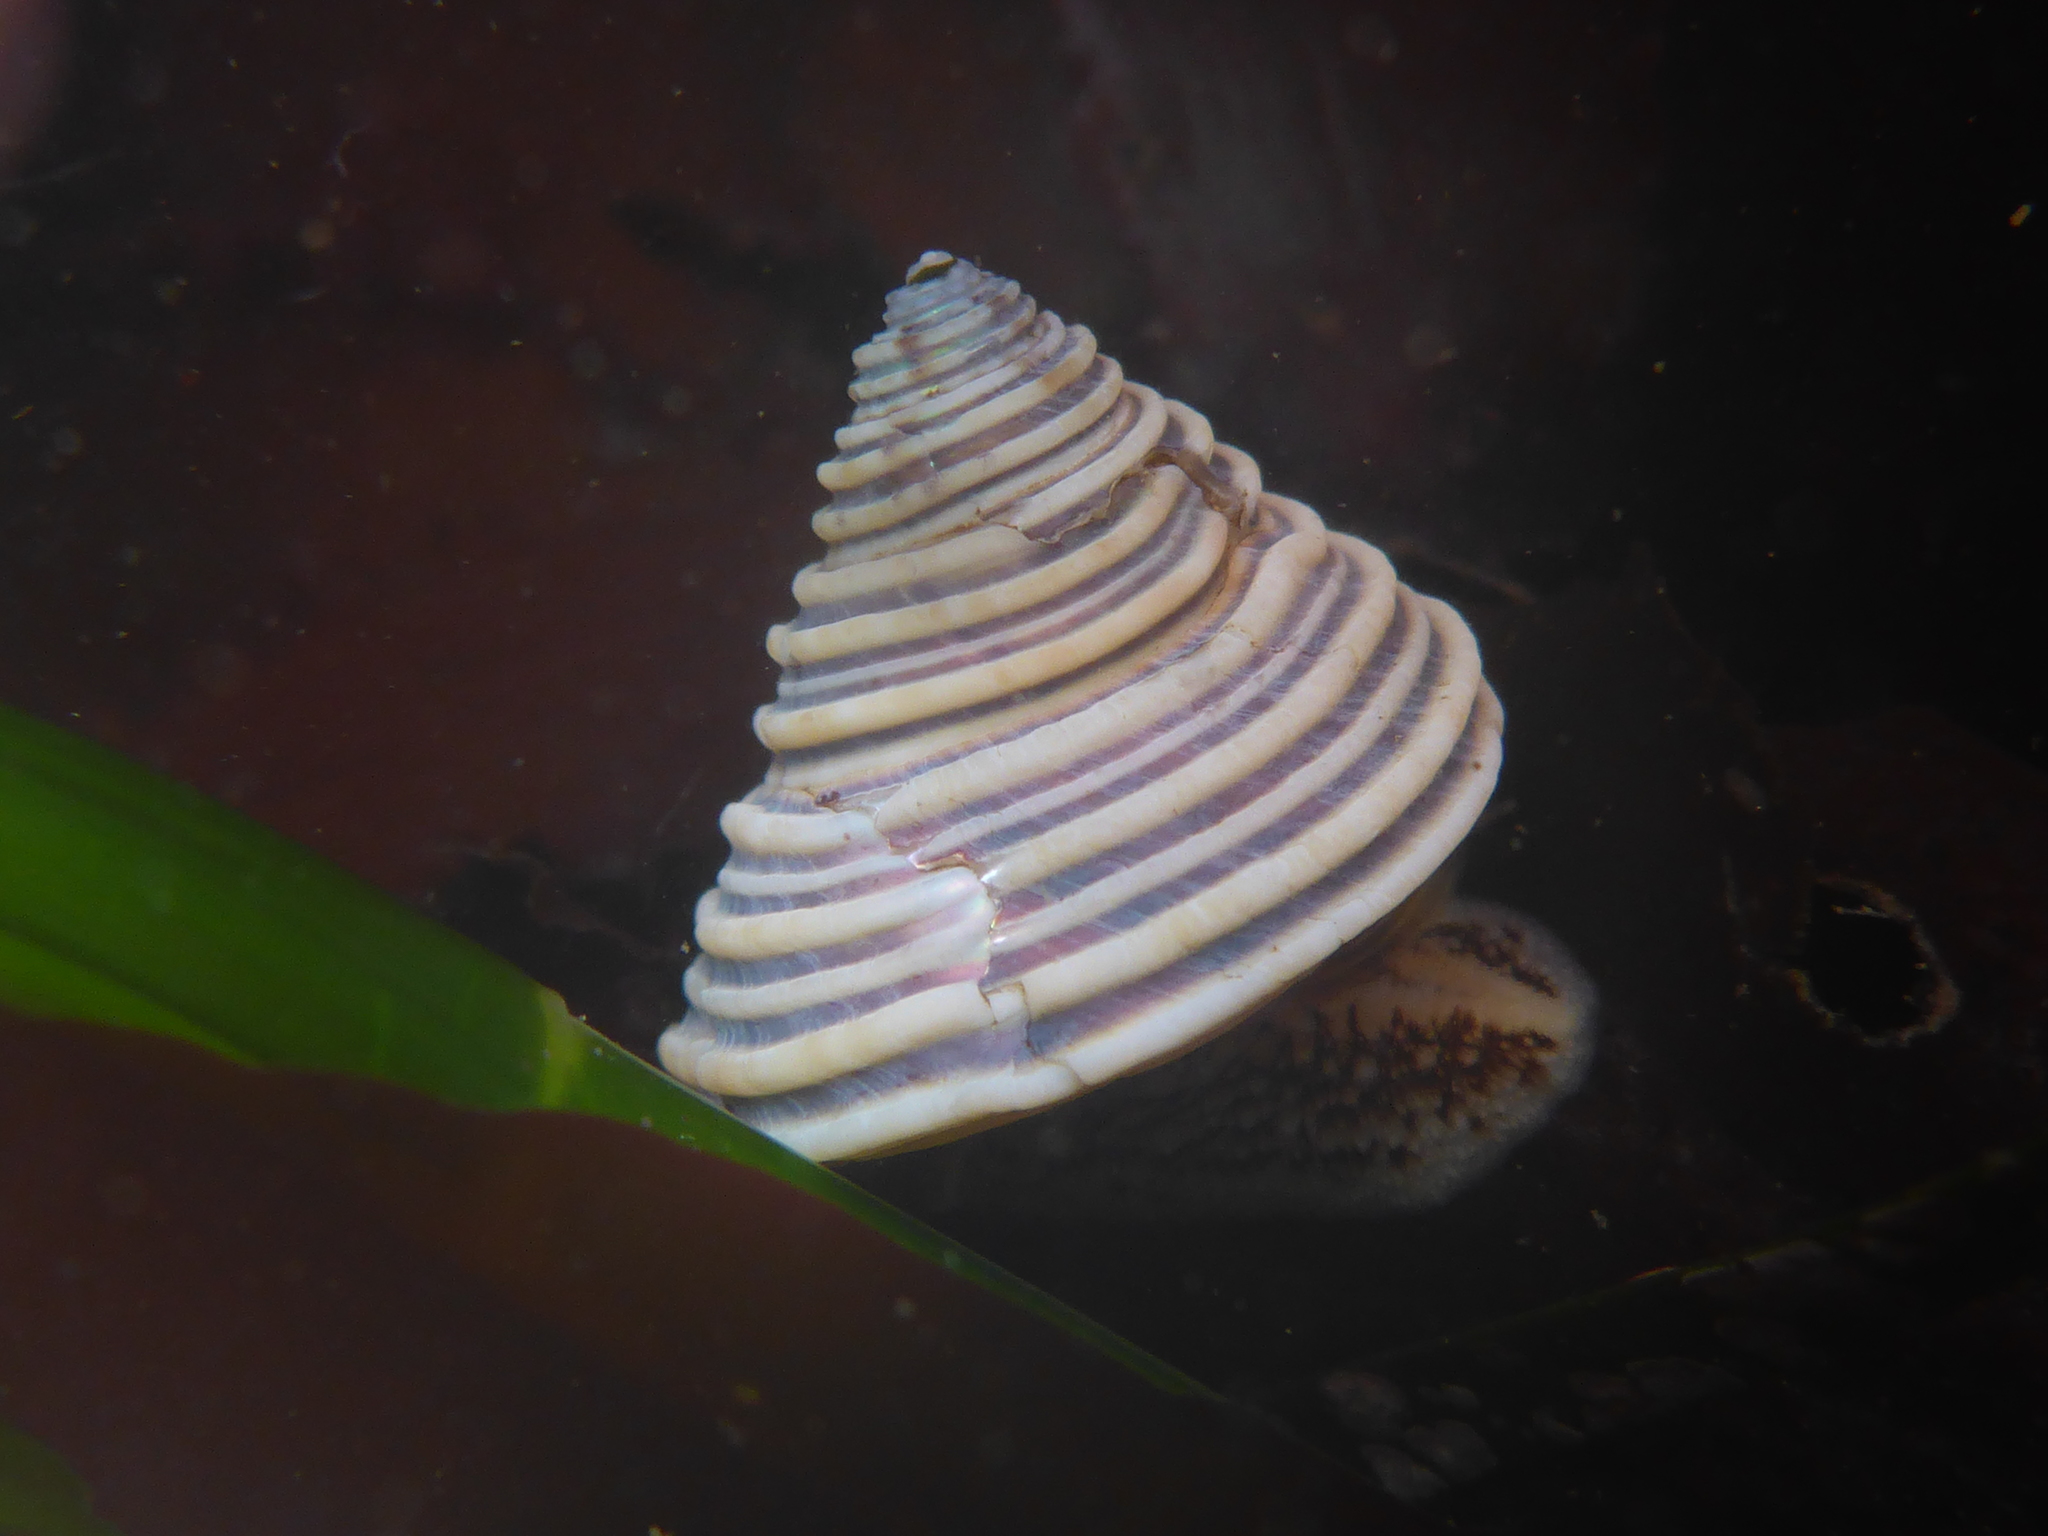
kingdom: Animalia
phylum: Mollusca
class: Gastropoda
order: Trochida
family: Calliostomatidae
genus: Calliostoma
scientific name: Calliostoma canaliculatum
